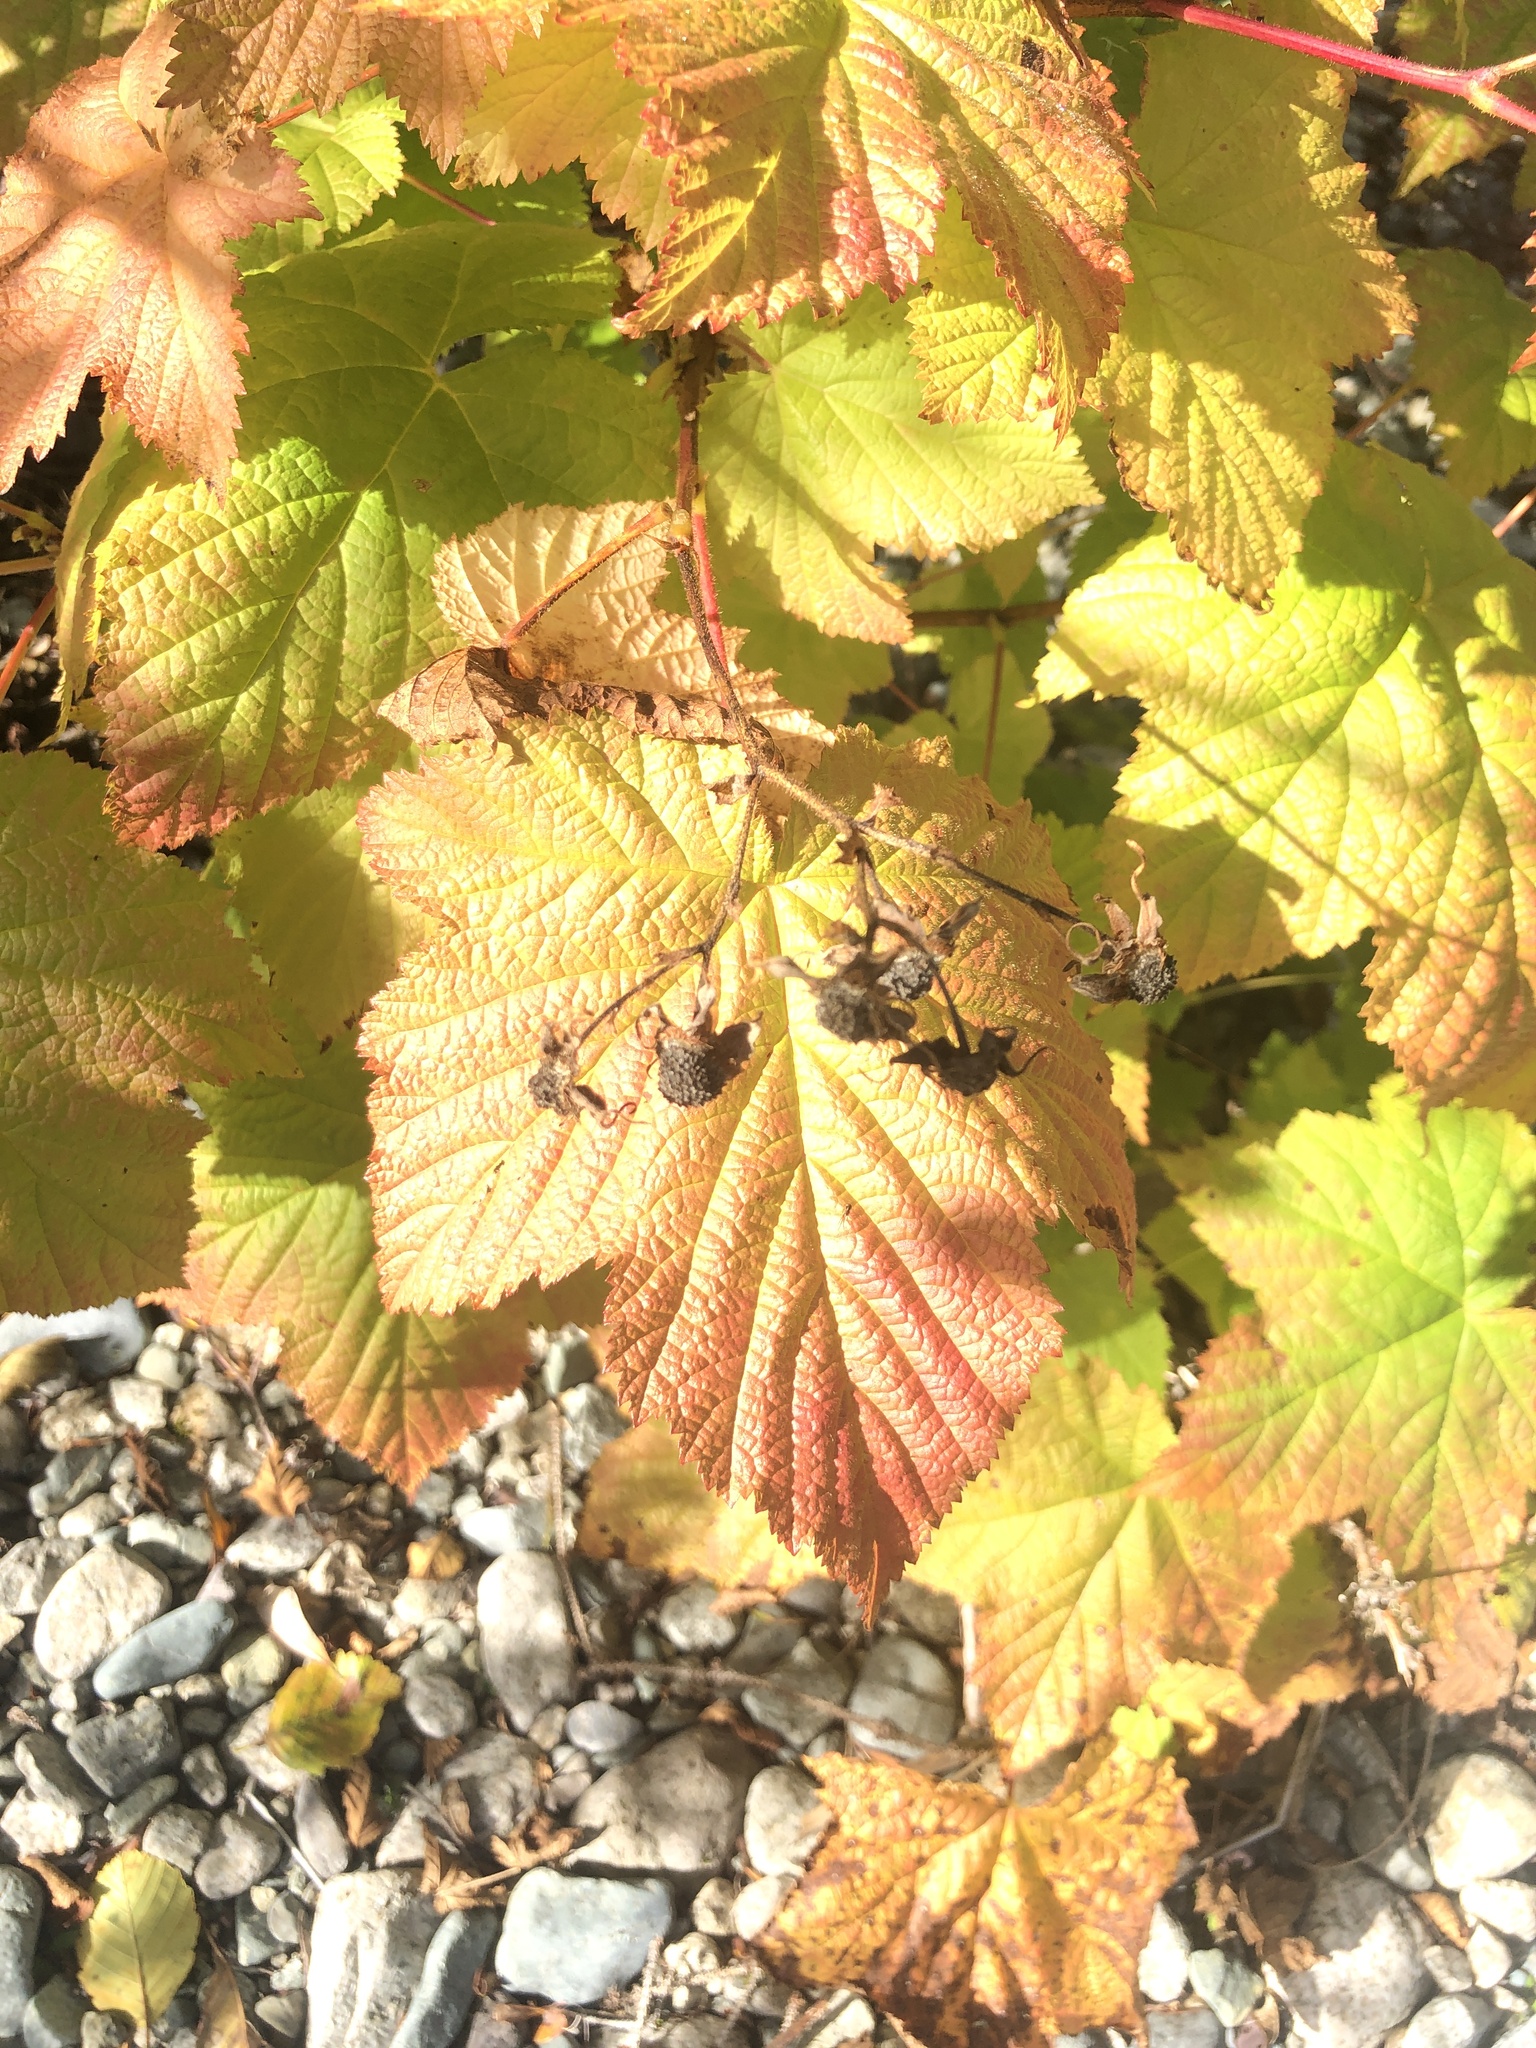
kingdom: Plantae
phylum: Tracheophyta
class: Magnoliopsida
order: Rosales
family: Rosaceae
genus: Rubus
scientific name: Rubus parviflorus
